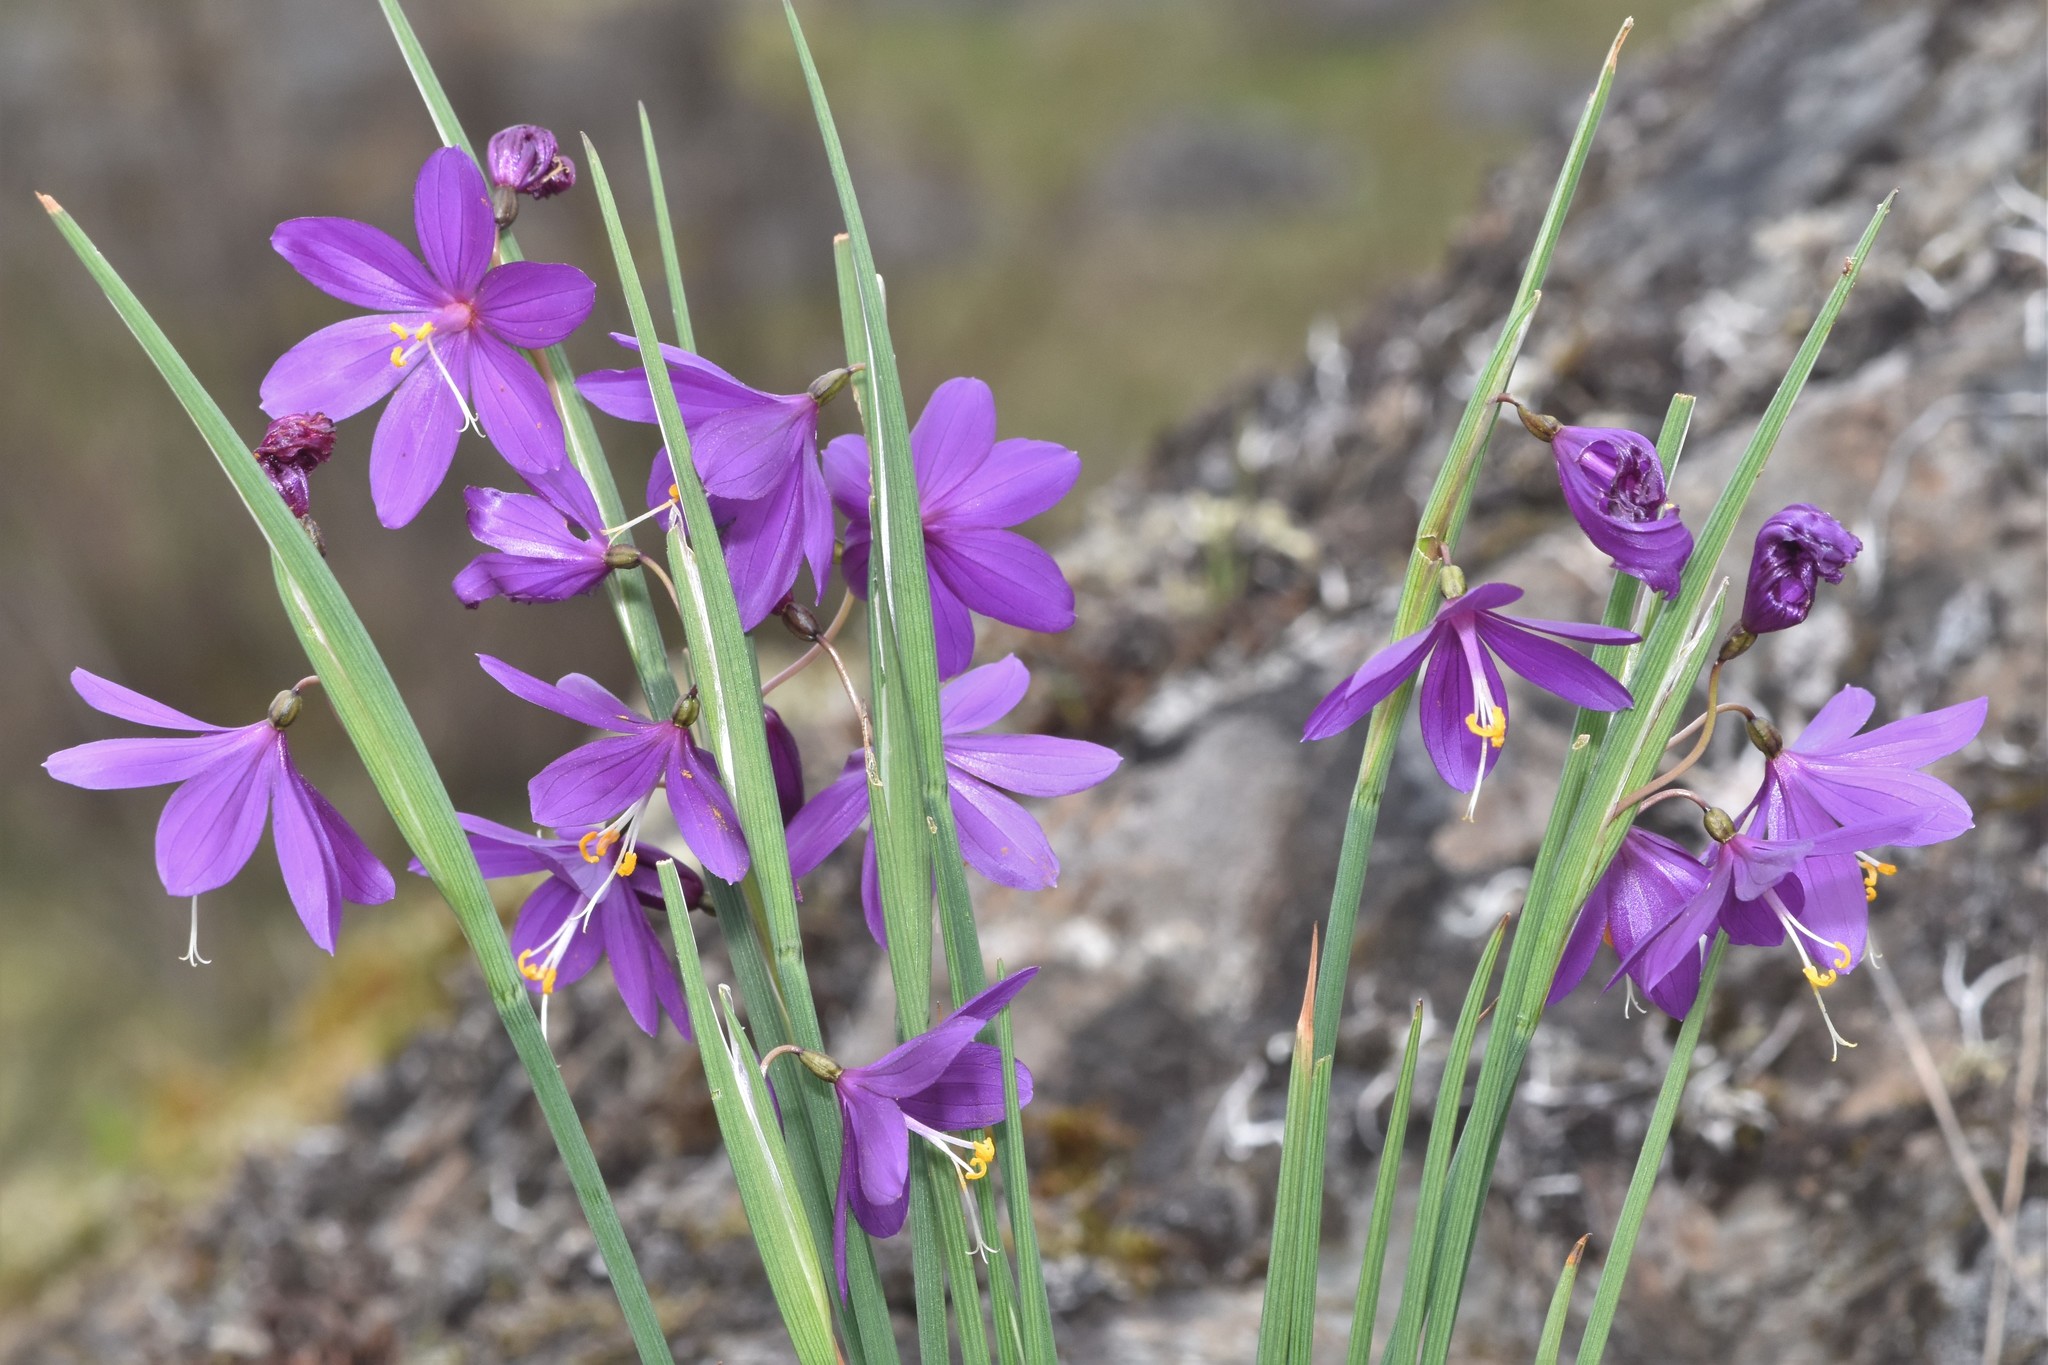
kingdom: Plantae
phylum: Tracheophyta
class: Liliopsida
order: Asparagales
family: Iridaceae
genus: Olsynium
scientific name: Olsynium douglasii
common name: Douglas' grasswidow
